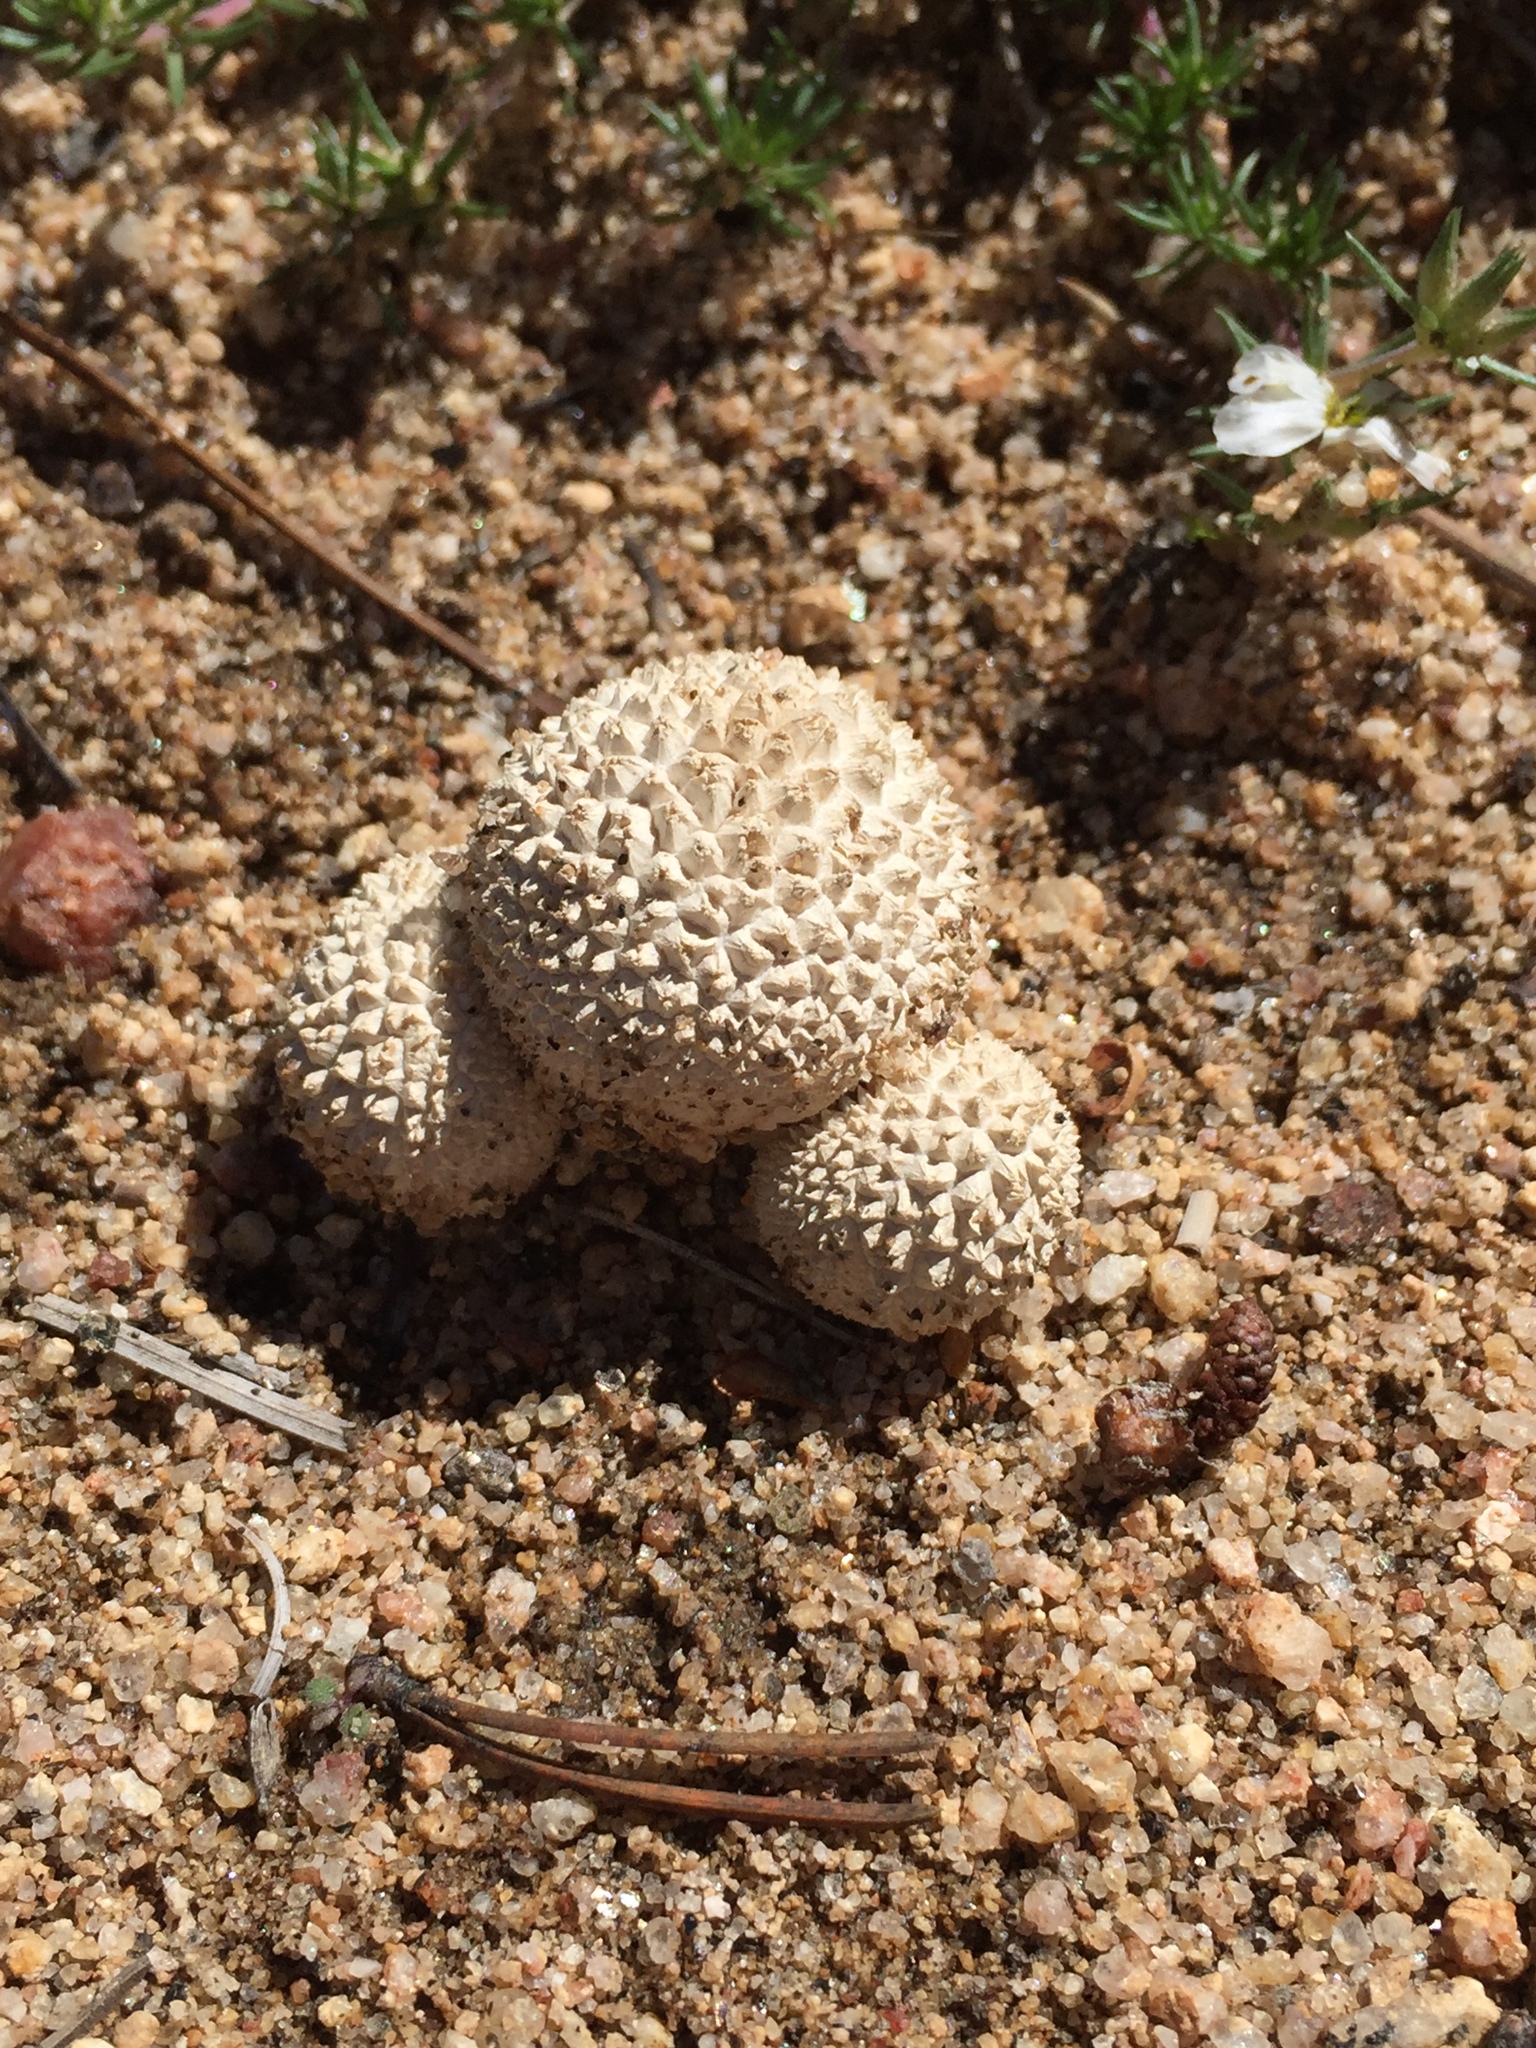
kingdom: Fungi
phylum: Basidiomycota
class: Agaricomycetes
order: Agaricales
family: Agaricaceae
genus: Lycoperdon
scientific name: Lycoperdon marginatum
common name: Peeling puffball
